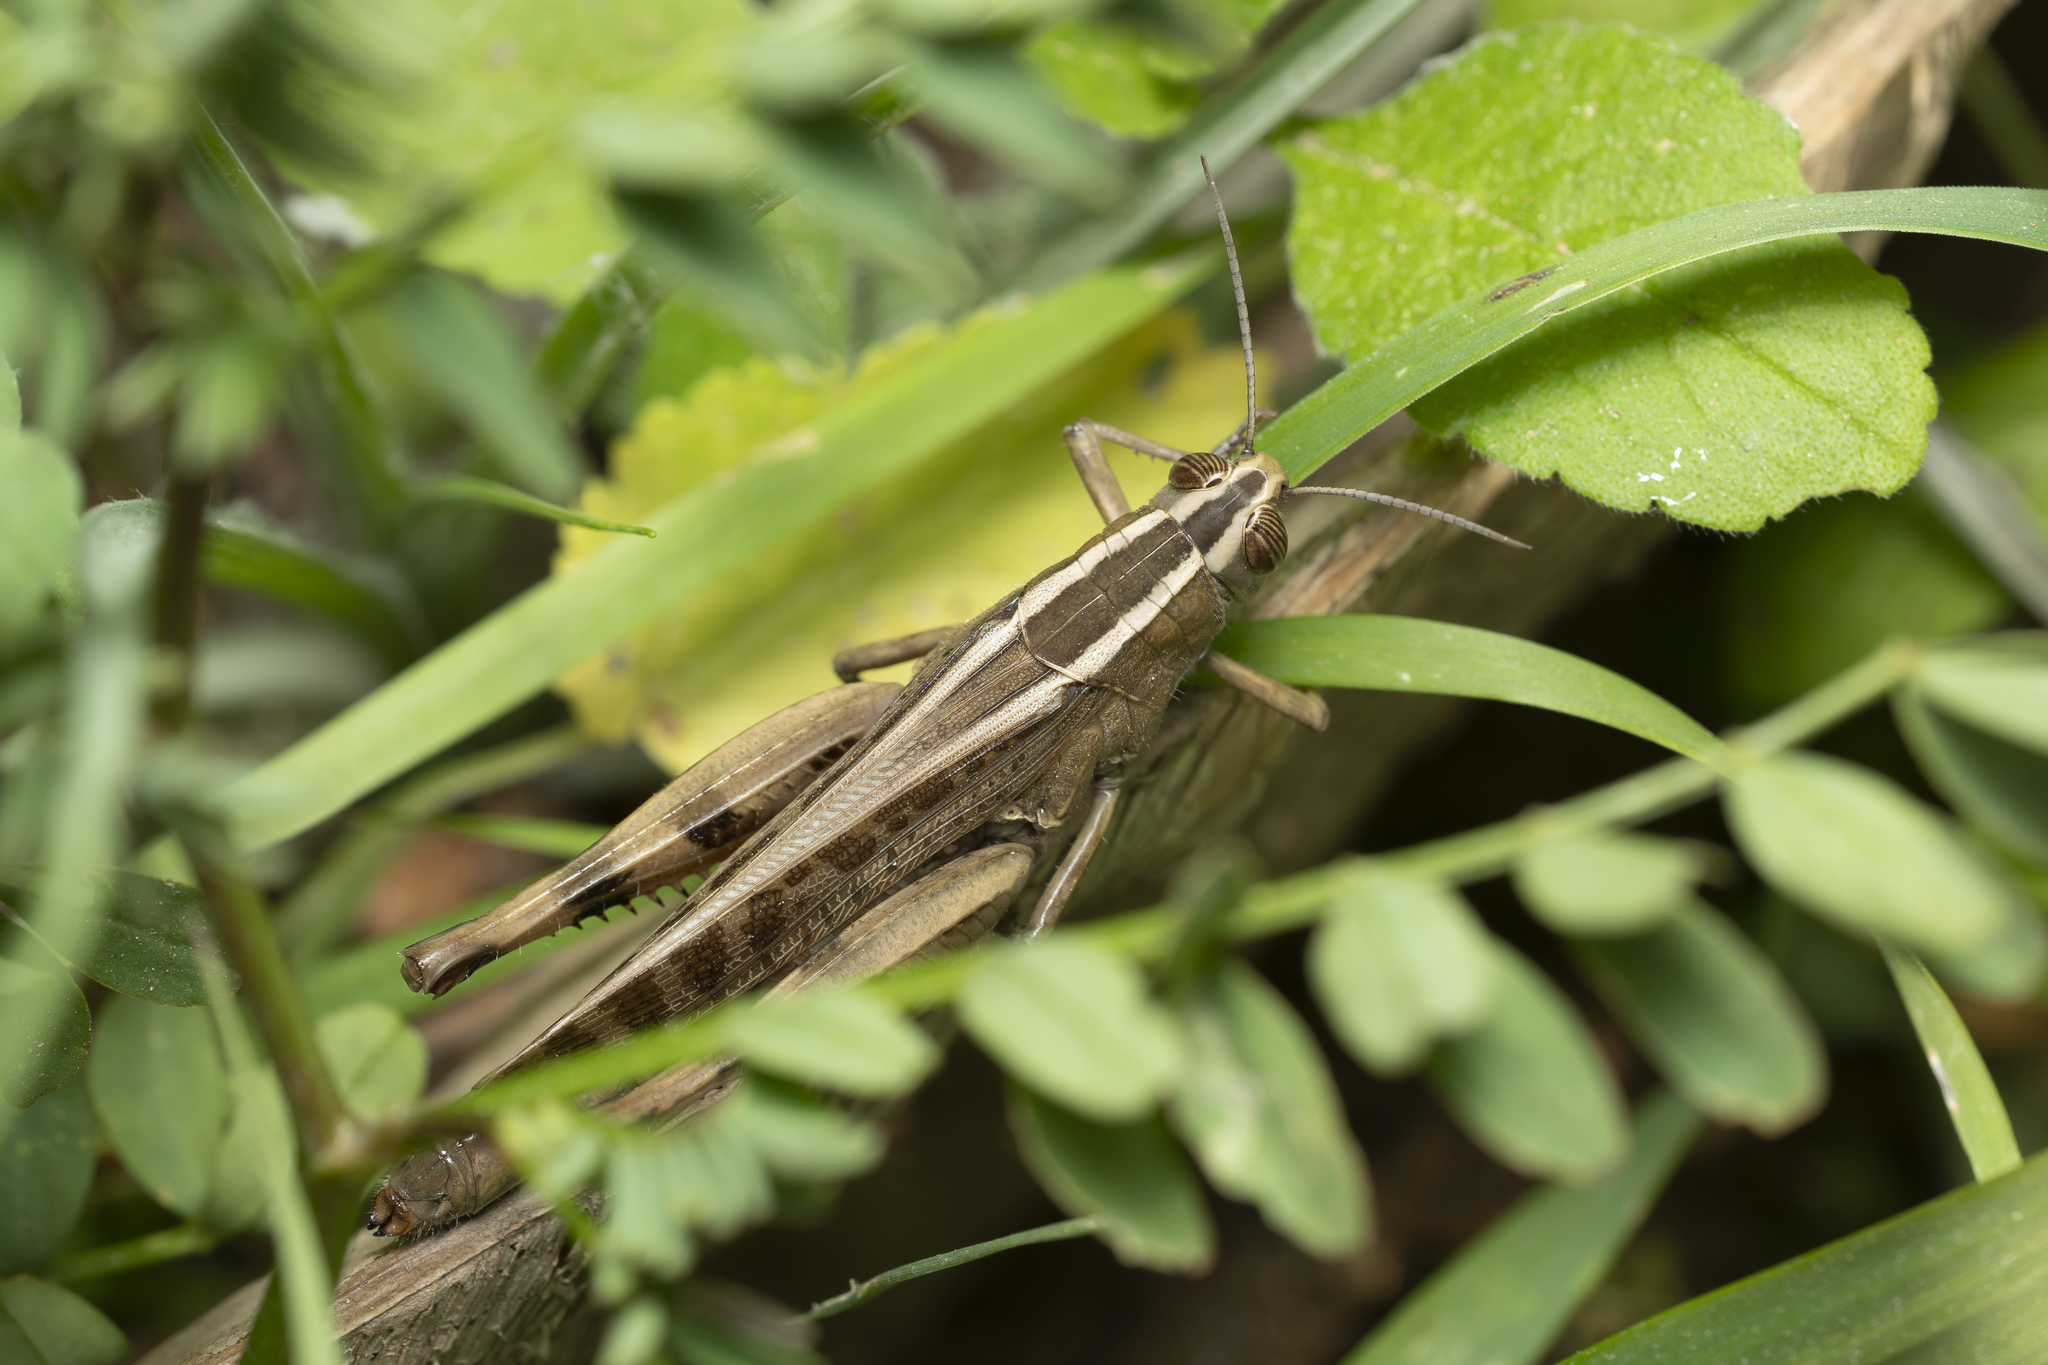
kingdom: Animalia
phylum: Arthropoda
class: Insecta
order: Orthoptera
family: Acrididae
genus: Heteracris
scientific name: Heteracris littoralis
